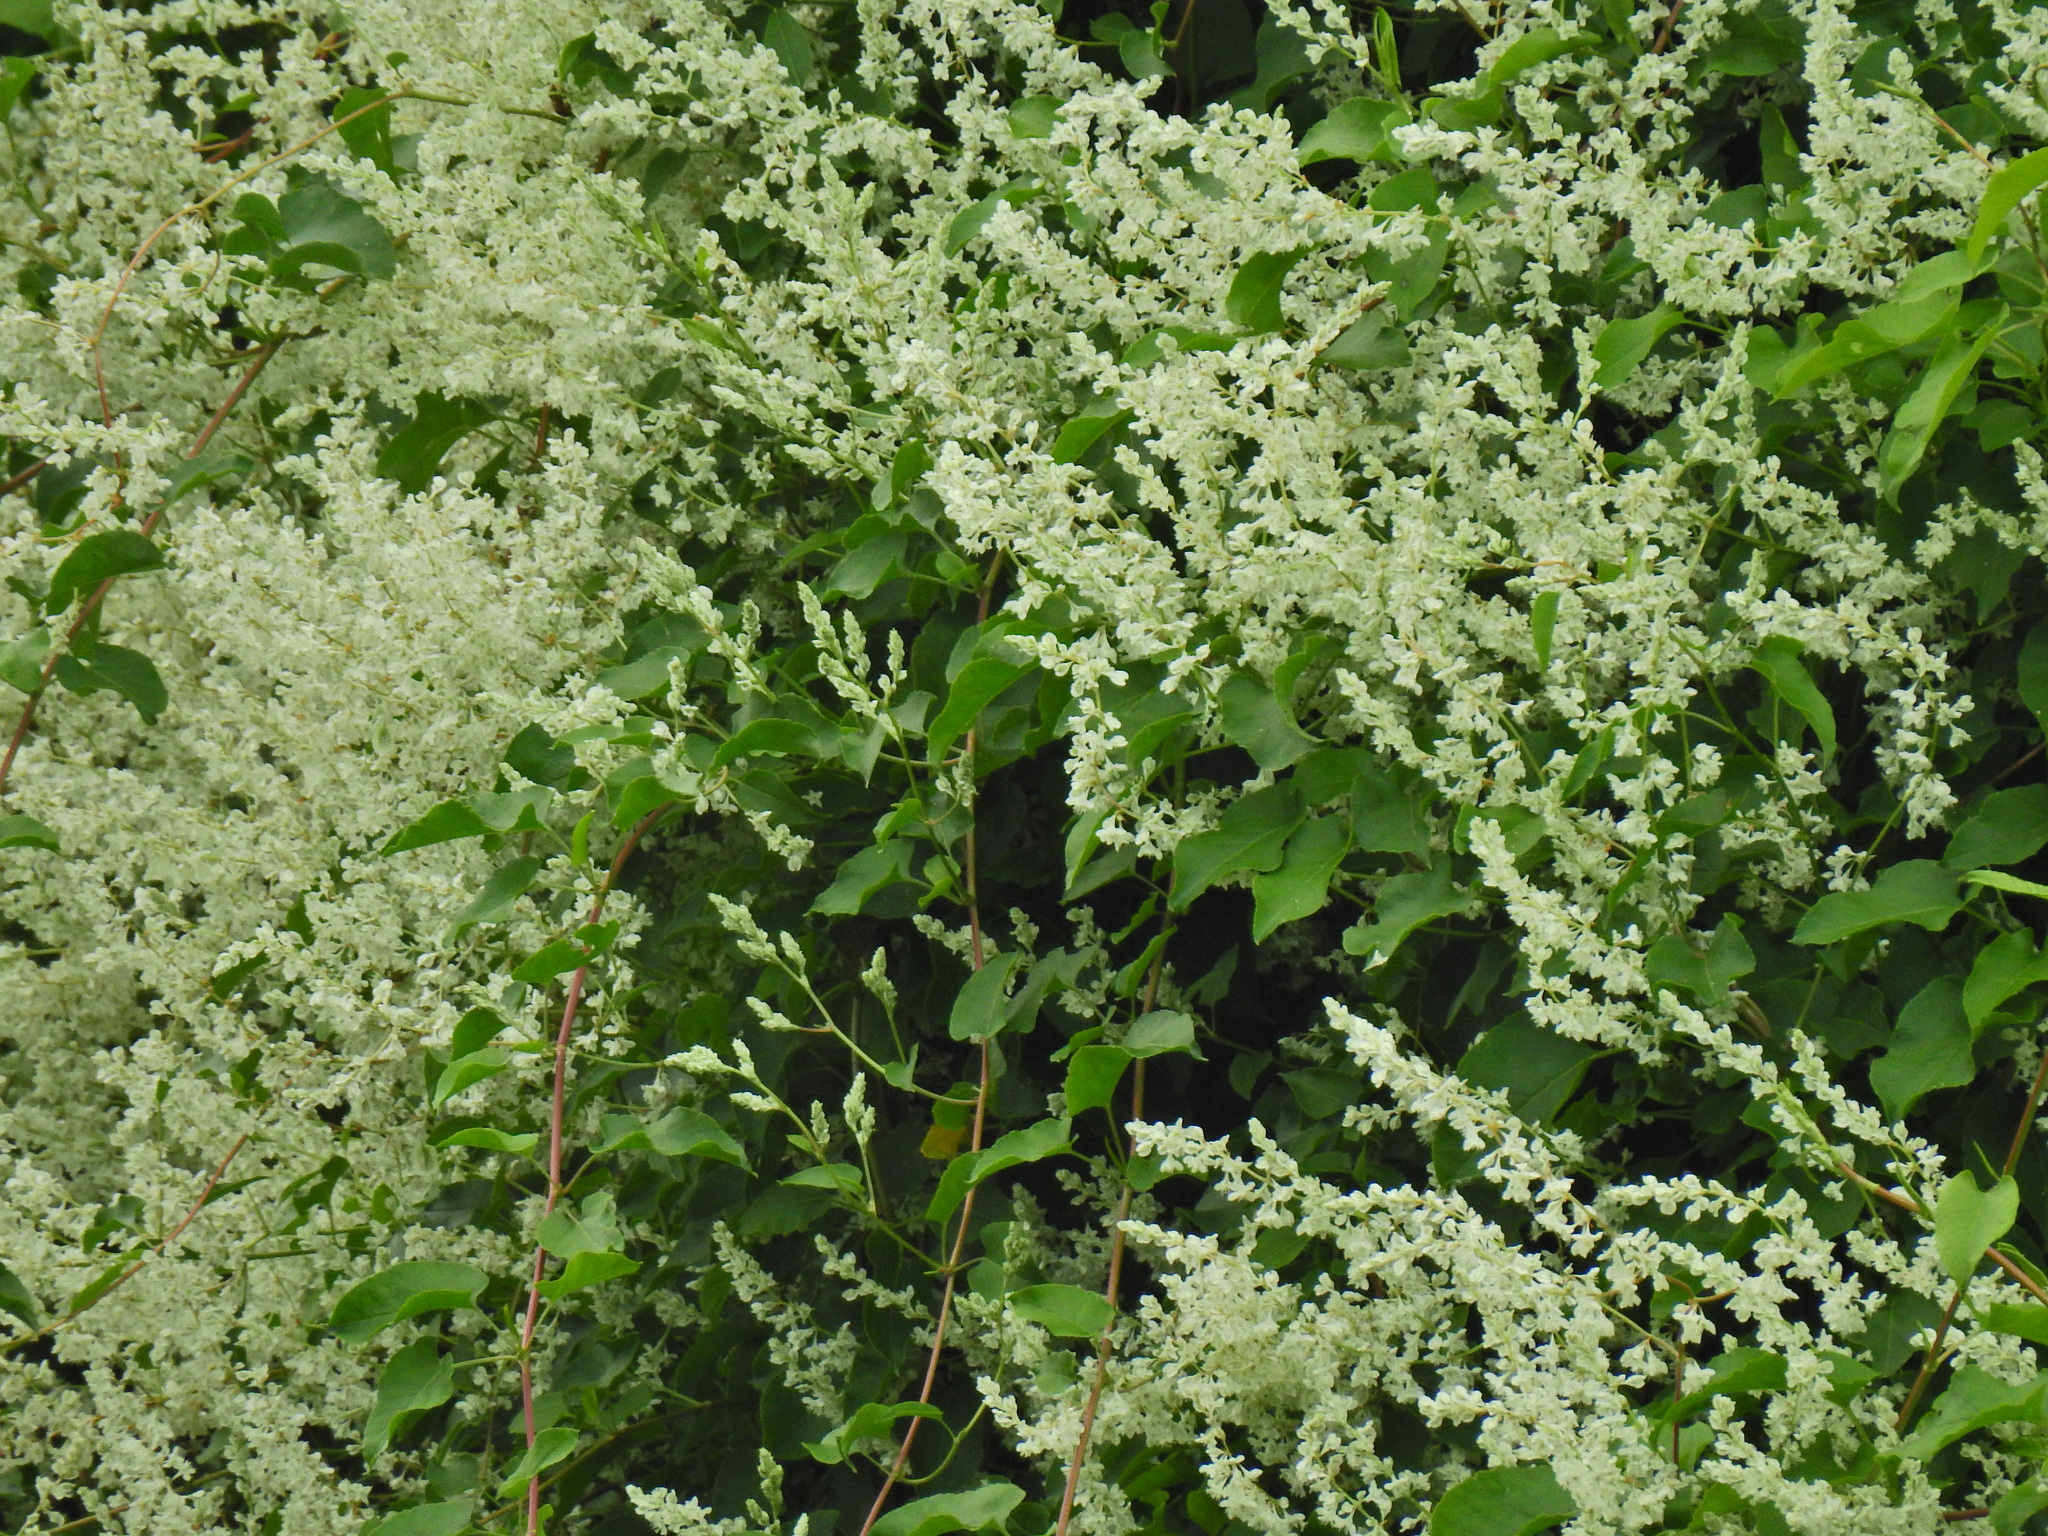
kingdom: Plantae
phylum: Tracheophyta
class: Magnoliopsida
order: Caryophyllales
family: Polygonaceae
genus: Fallopia
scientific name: Fallopia baldschuanica
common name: Russian-vine
